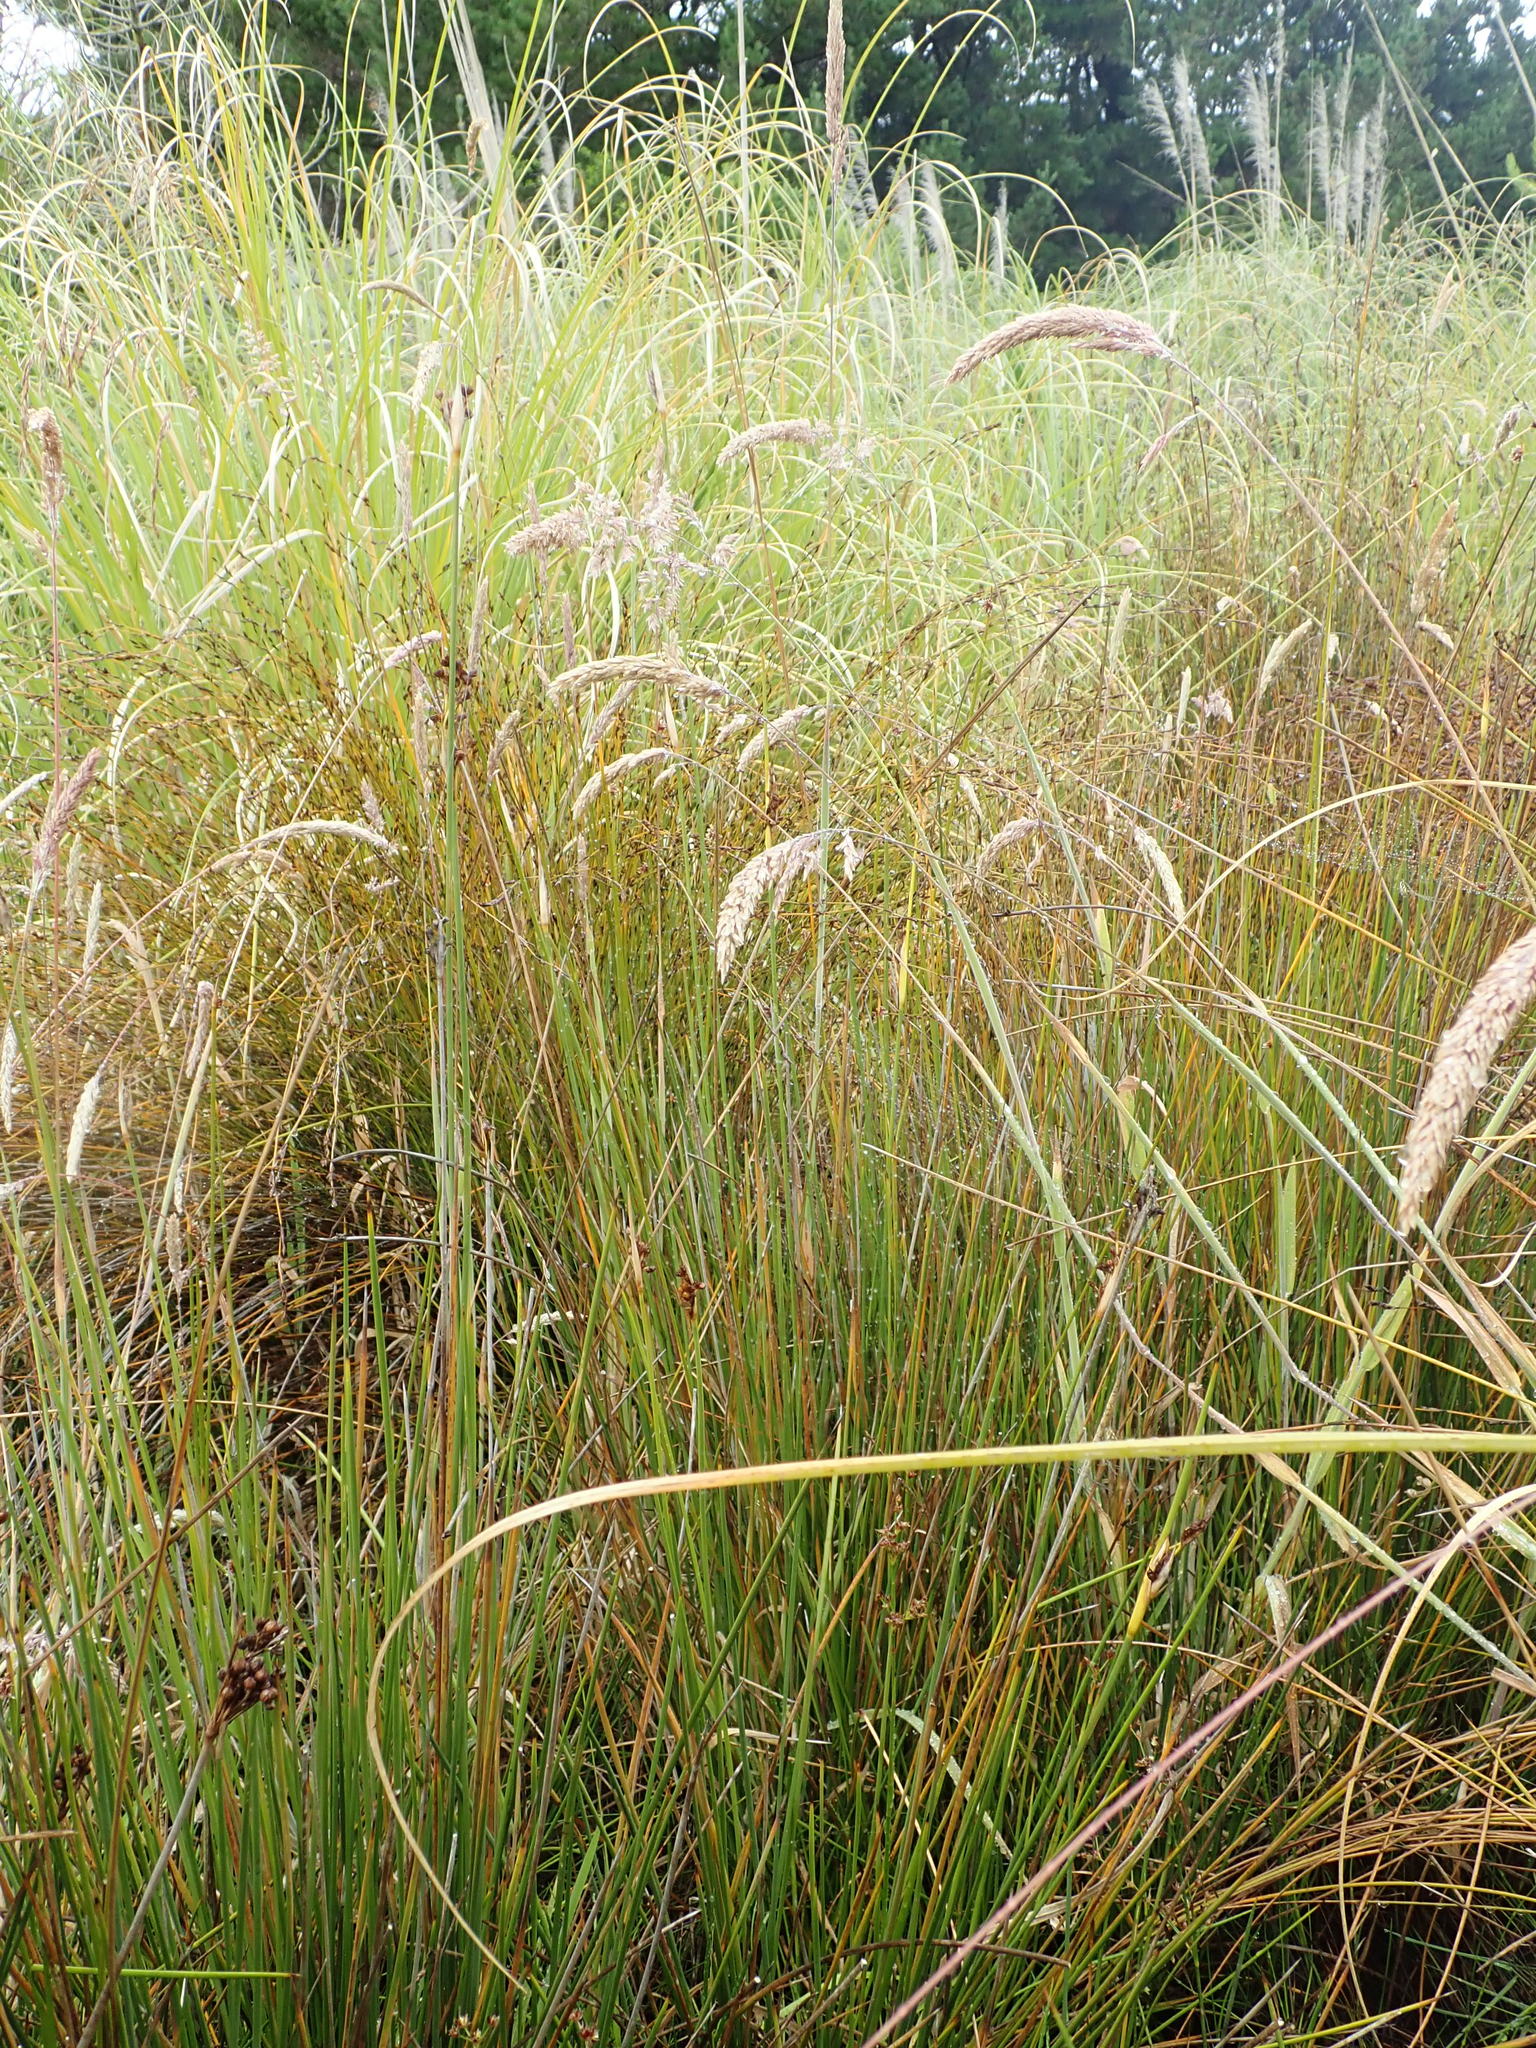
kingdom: Animalia
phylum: Arthropoda
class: Arachnida
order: Araneae
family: Tetragnathidae
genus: Leucauge
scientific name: Leucauge dromedaria
